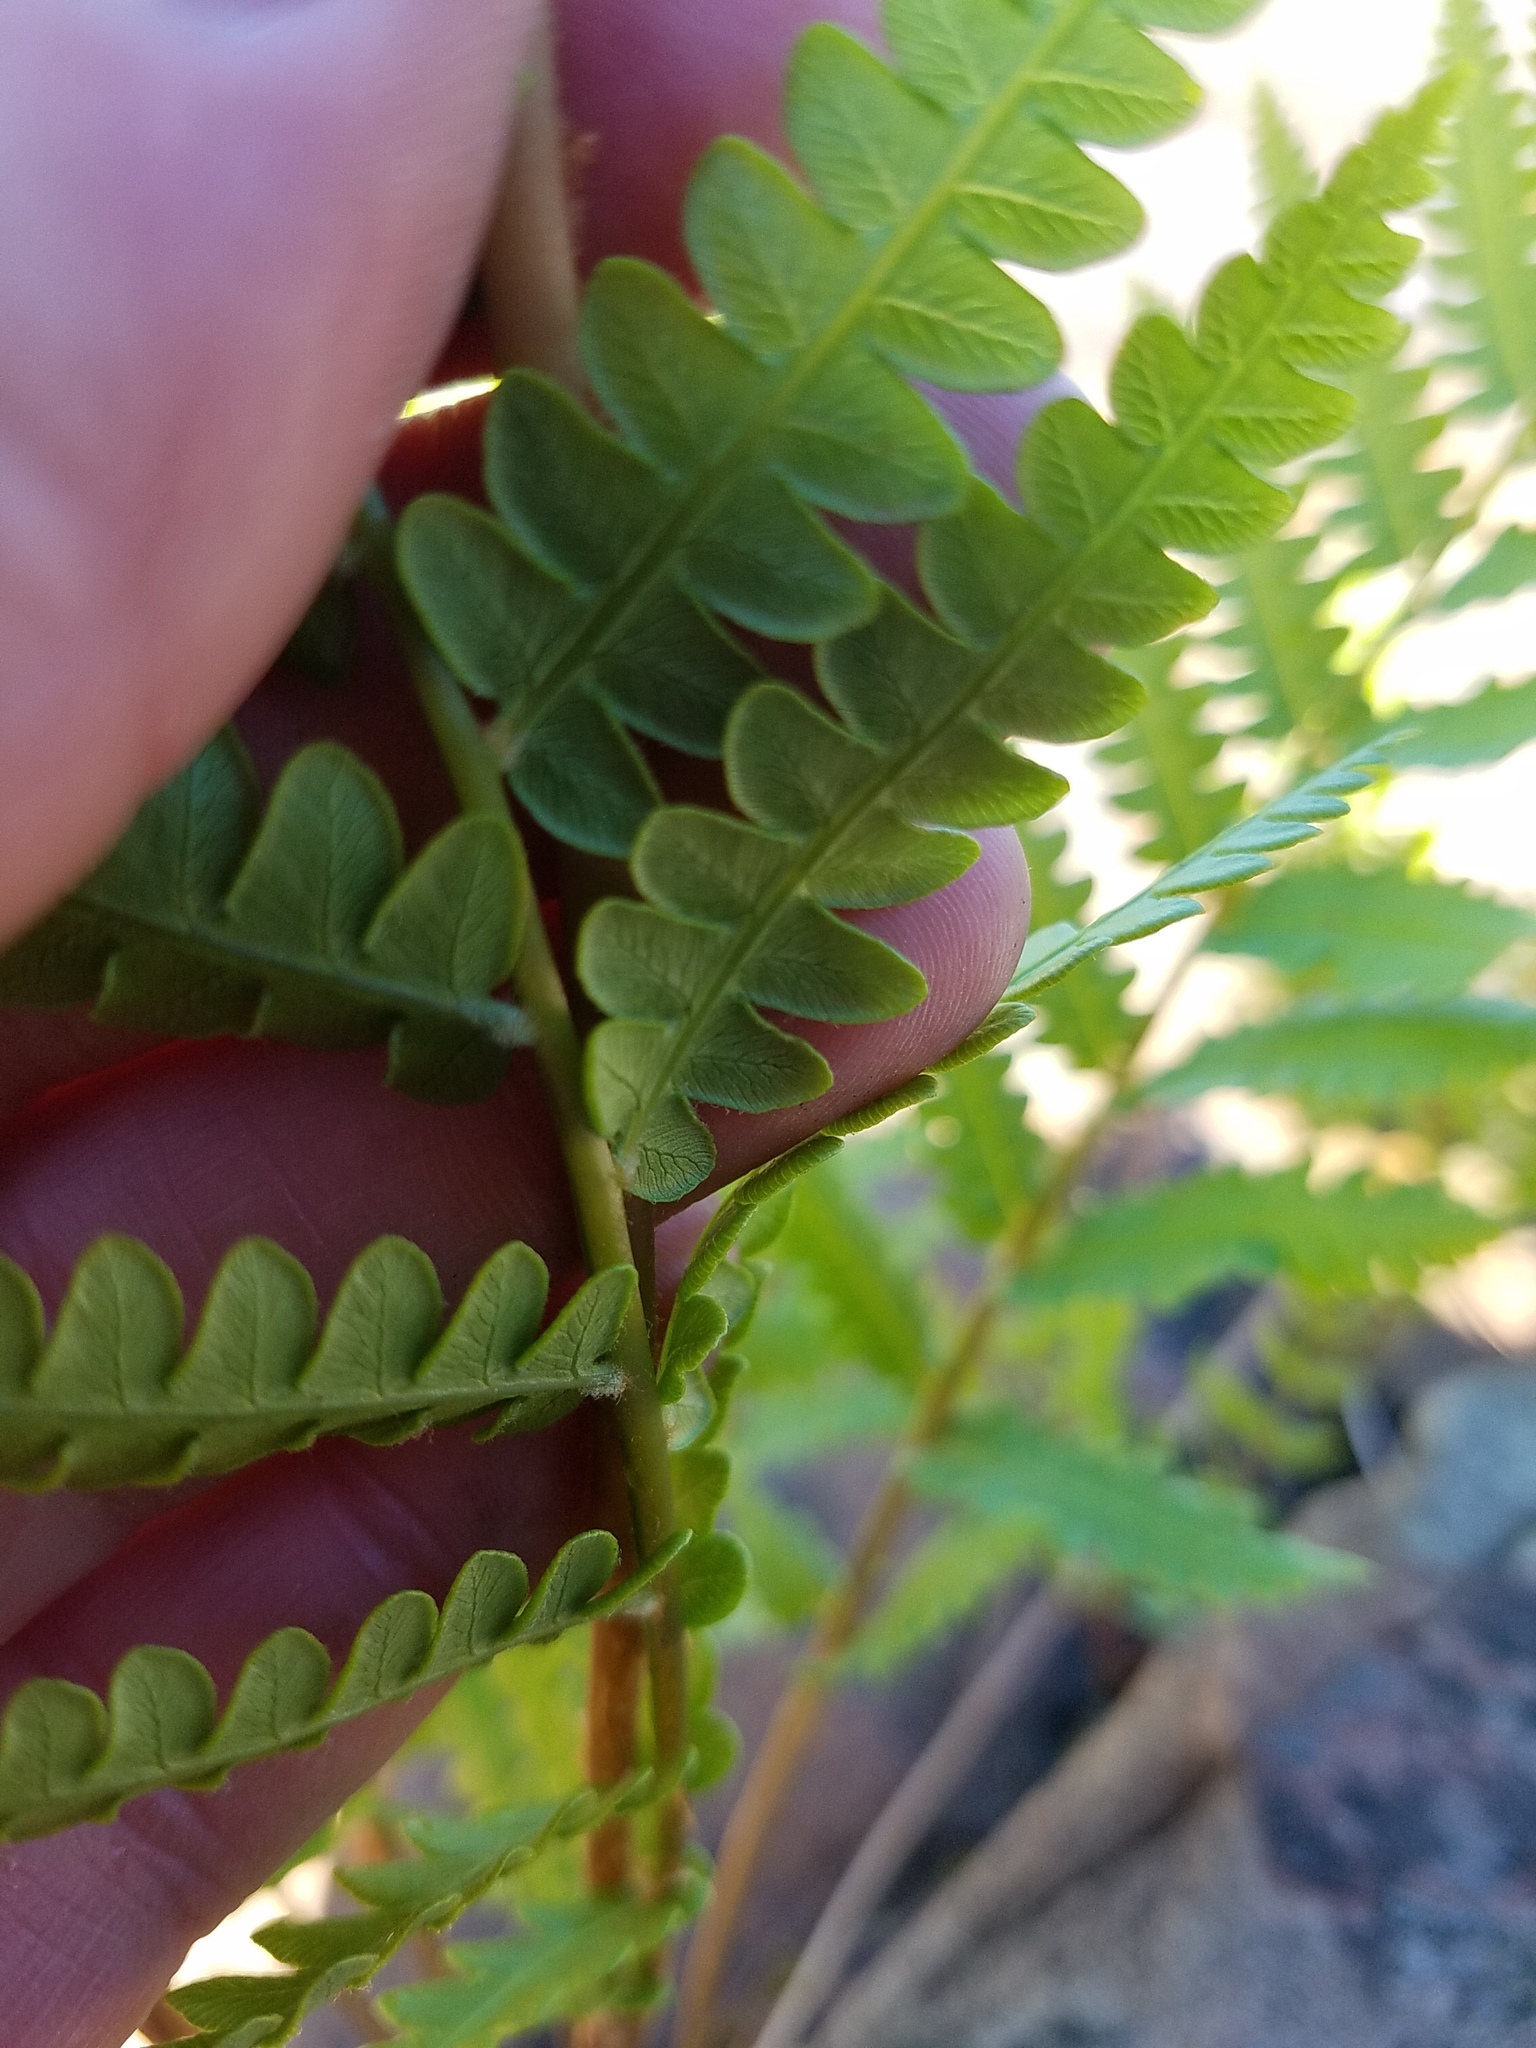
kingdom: Plantae
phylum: Tracheophyta
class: Polypodiopsida
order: Osmundales
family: Osmundaceae
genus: Osmundastrum
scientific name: Osmundastrum cinnamomeum
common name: Cinnamon fern
